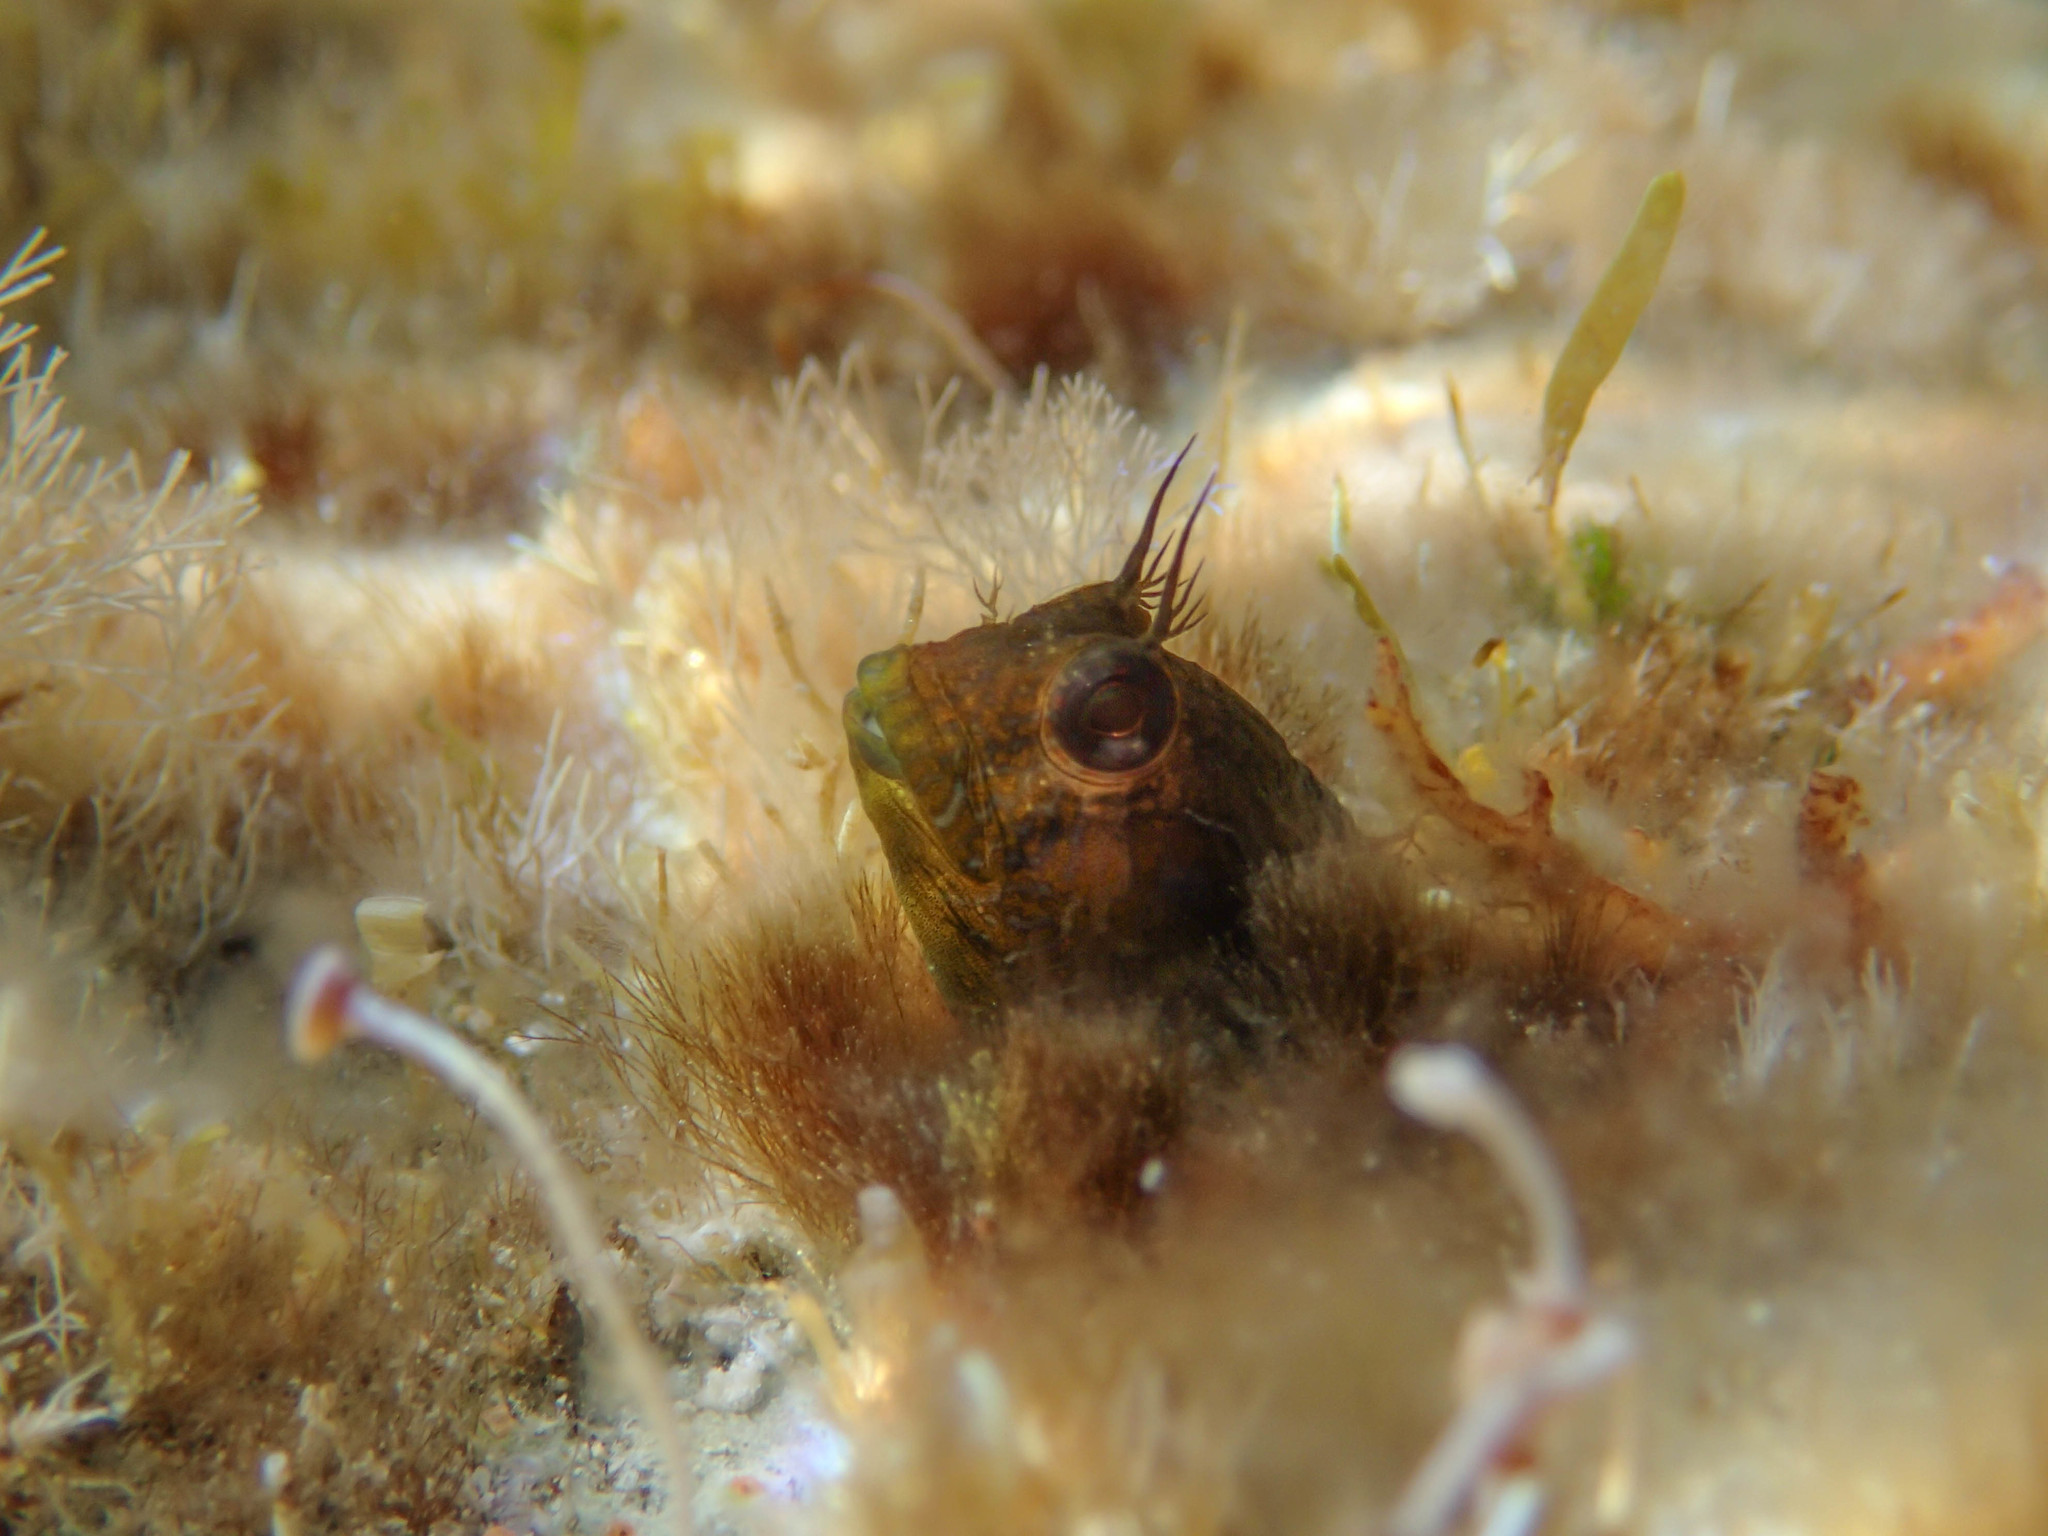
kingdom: Animalia
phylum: Chordata
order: Perciformes
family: Blenniidae
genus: Parablennius
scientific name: Parablennius incognitus
